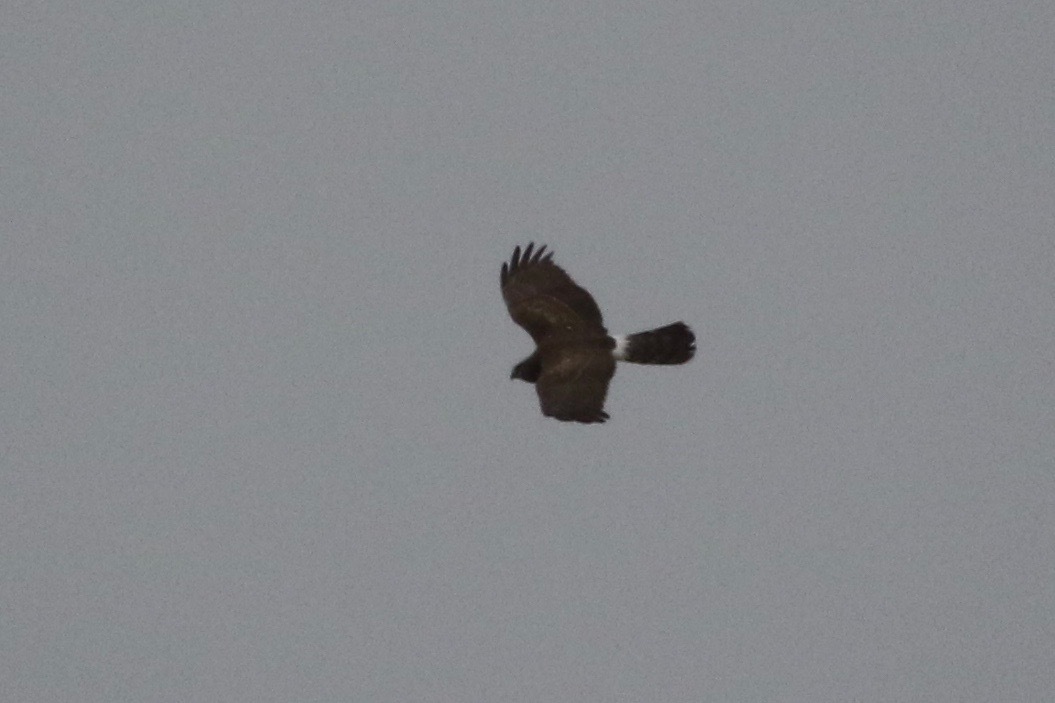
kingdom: Animalia
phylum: Chordata
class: Aves
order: Accipitriformes
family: Accipitridae
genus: Circus
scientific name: Circus cyaneus
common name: Hen harrier
